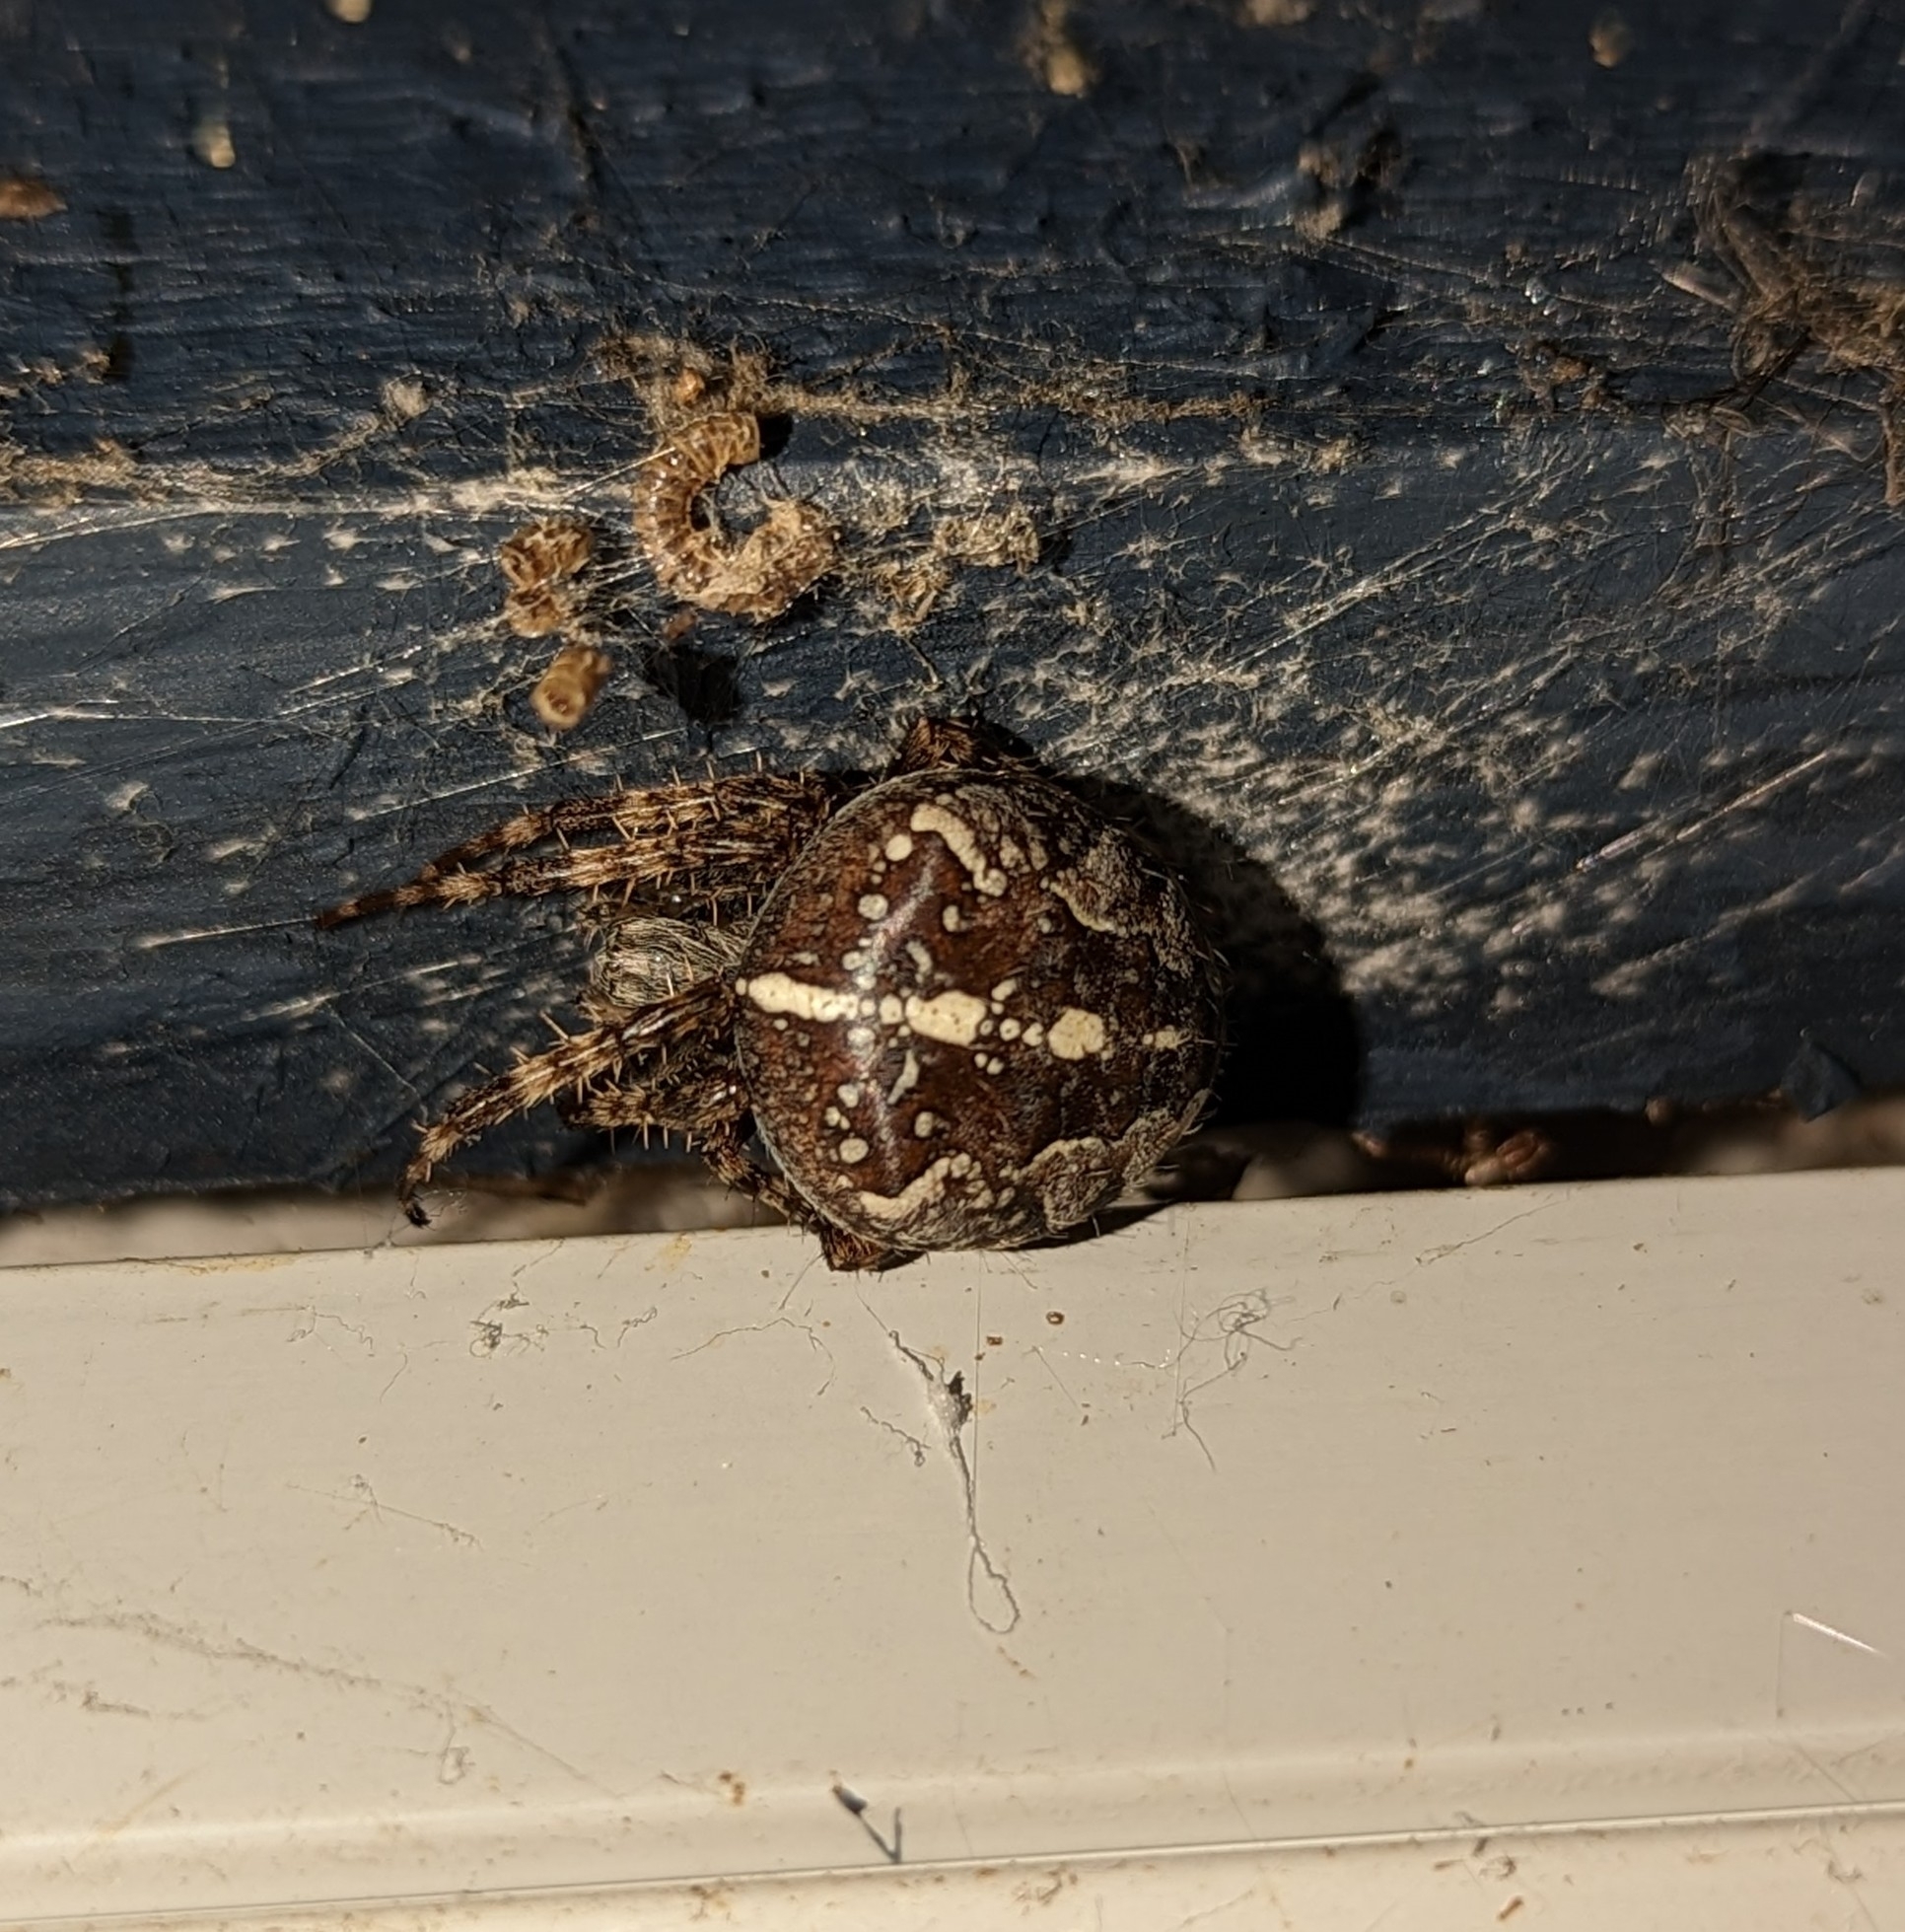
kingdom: Animalia
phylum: Arthropoda
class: Arachnida
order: Araneae
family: Araneidae
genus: Araneus
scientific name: Araneus diadematus
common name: Cross orbweaver
